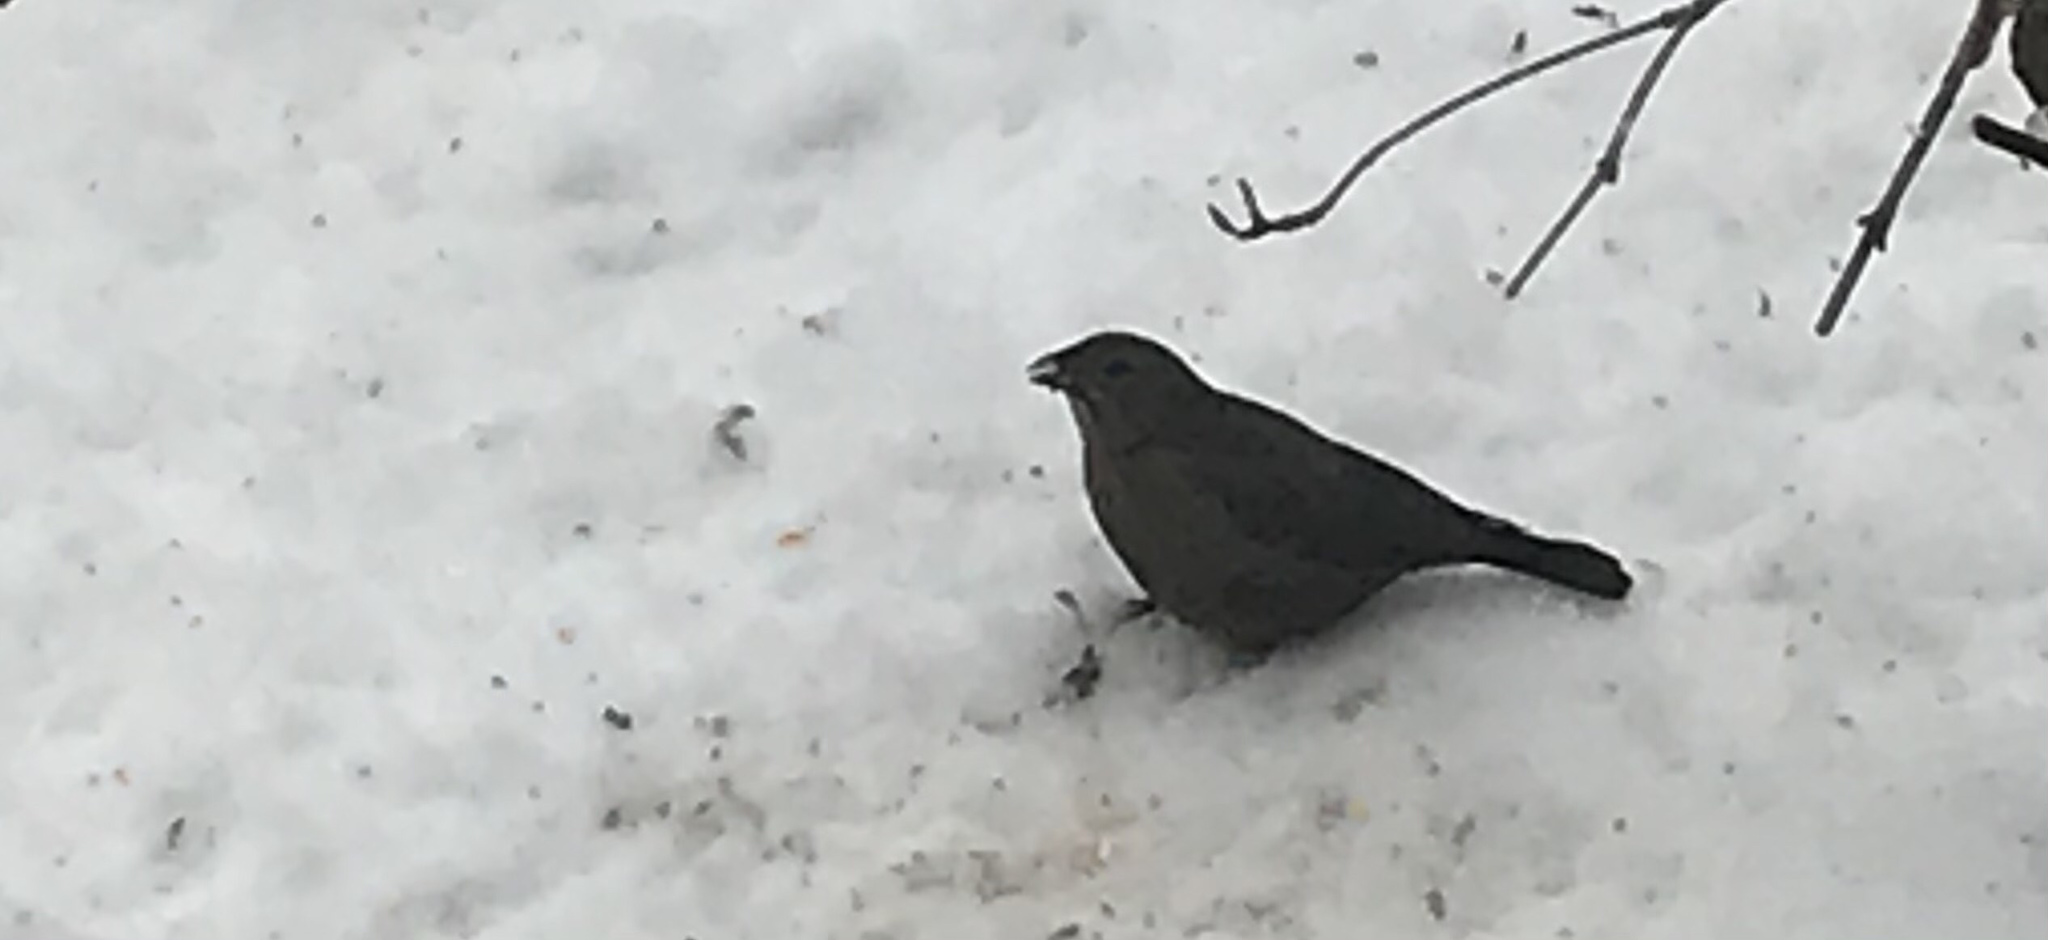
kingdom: Animalia
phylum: Chordata
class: Aves
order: Passeriformes
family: Icteridae
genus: Molothrus
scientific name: Molothrus ater
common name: Brown-headed cowbird
